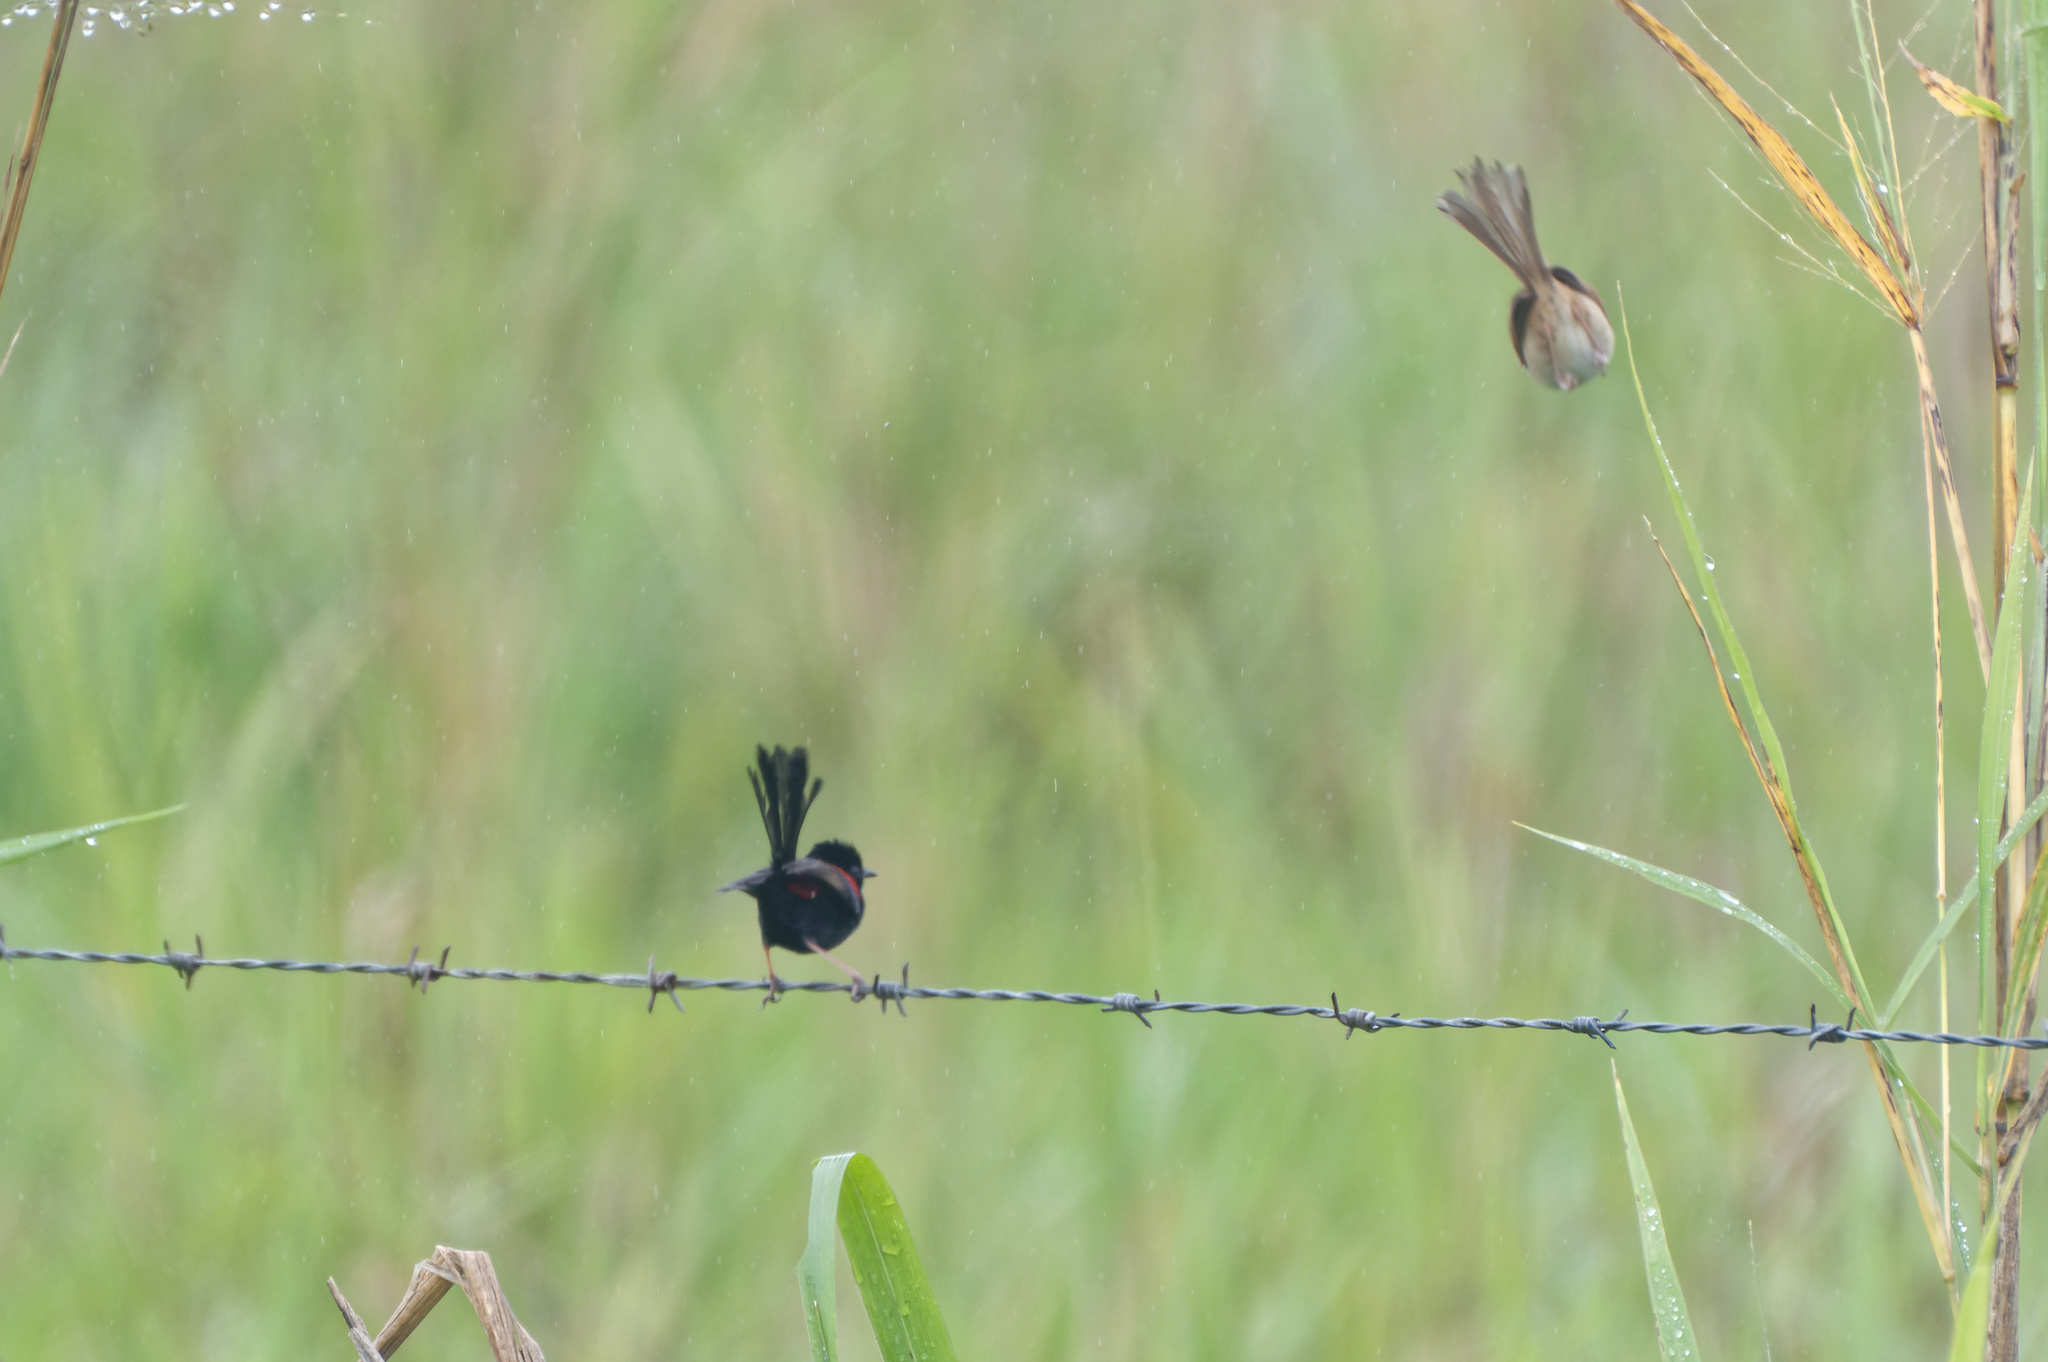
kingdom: Animalia
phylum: Chordata
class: Aves
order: Passeriformes
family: Maluridae
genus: Malurus
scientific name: Malurus melanocephalus
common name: Red-backed fairywren
